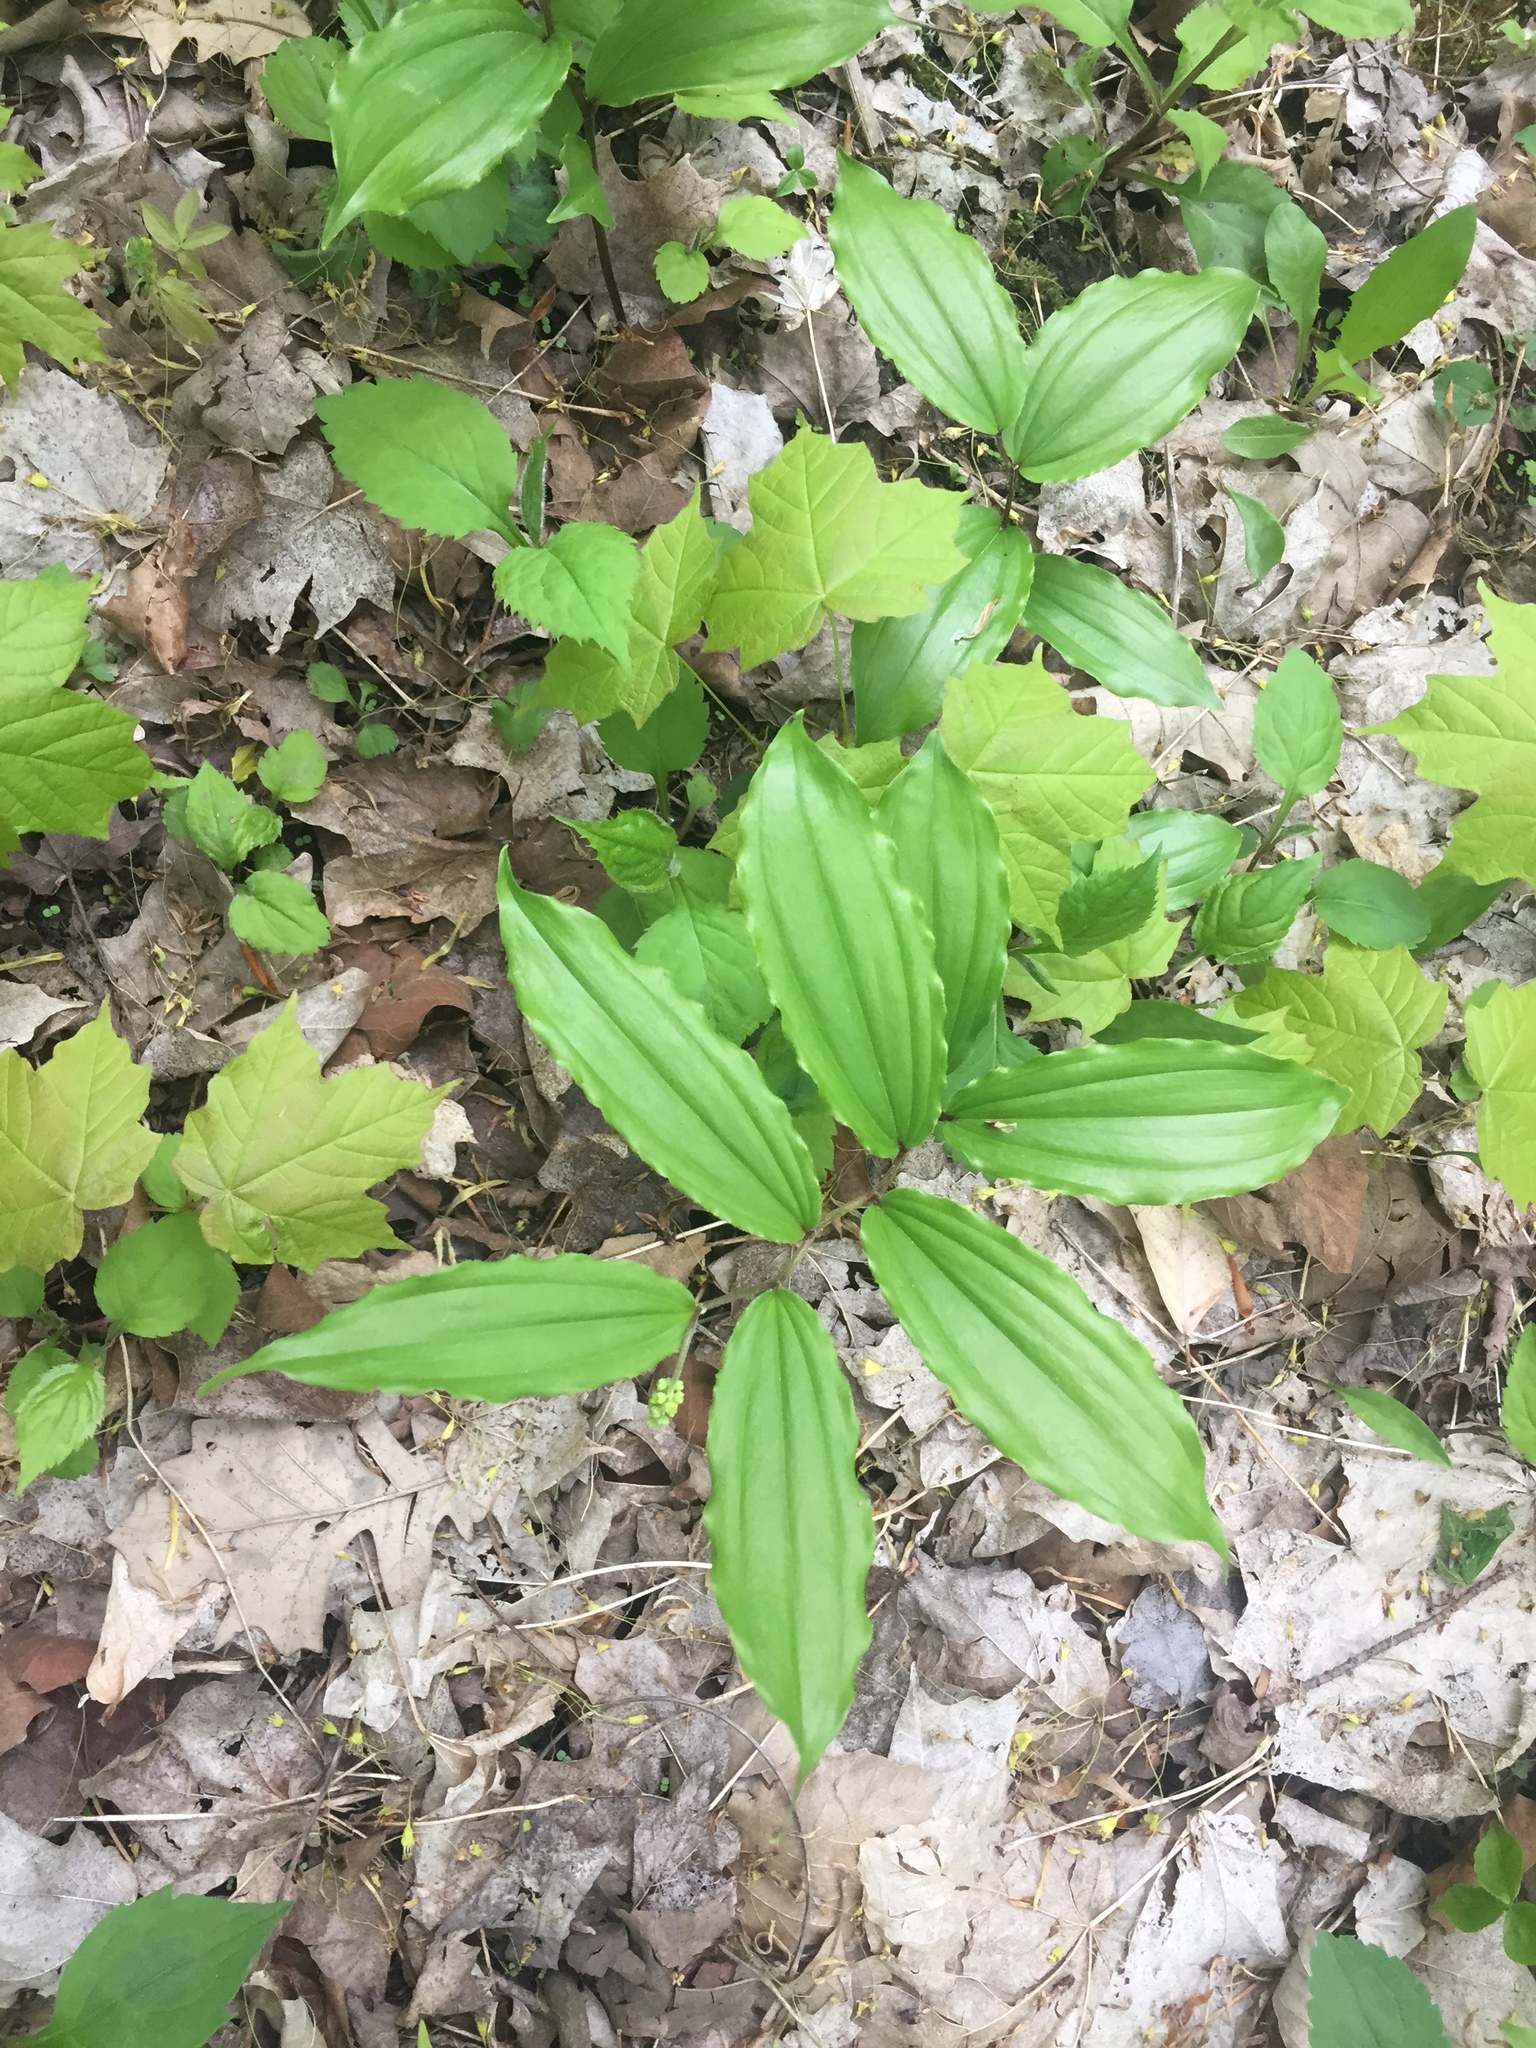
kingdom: Plantae
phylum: Tracheophyta
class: Liliopsida
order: Asparagales
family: Asparagaceae
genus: Maianthemum
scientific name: Maianthemum racemosum
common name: False spikenard
